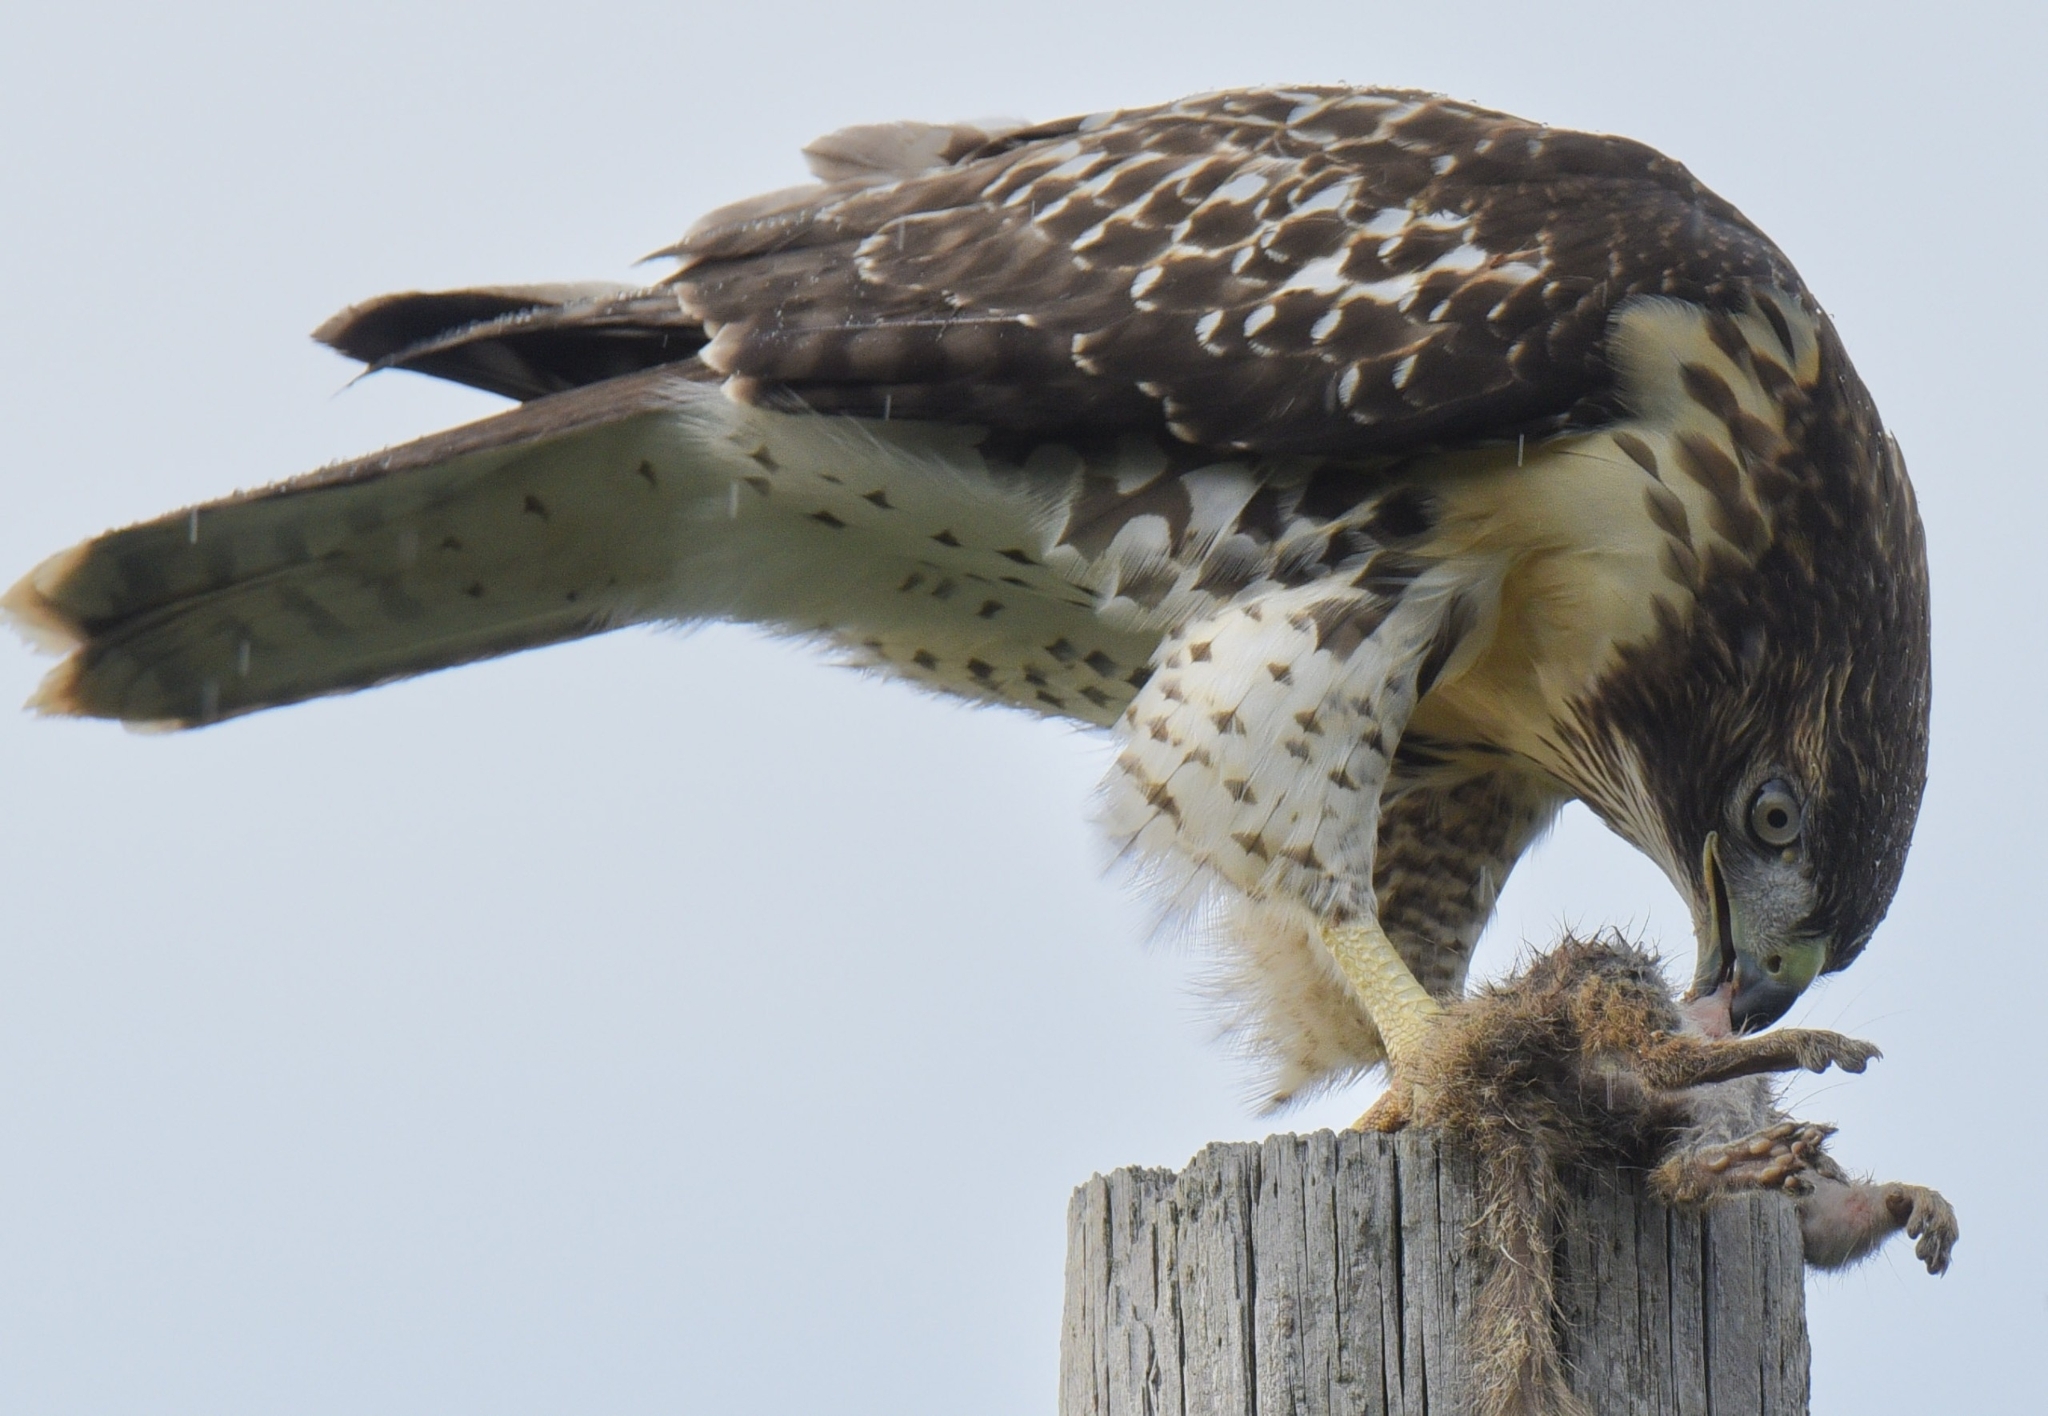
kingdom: Animalia
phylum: Chordata
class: Aves
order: Accipitriformes
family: Accipitridae
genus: Buteo
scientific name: Buteo jamaicensis
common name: Red-tailed hawk
